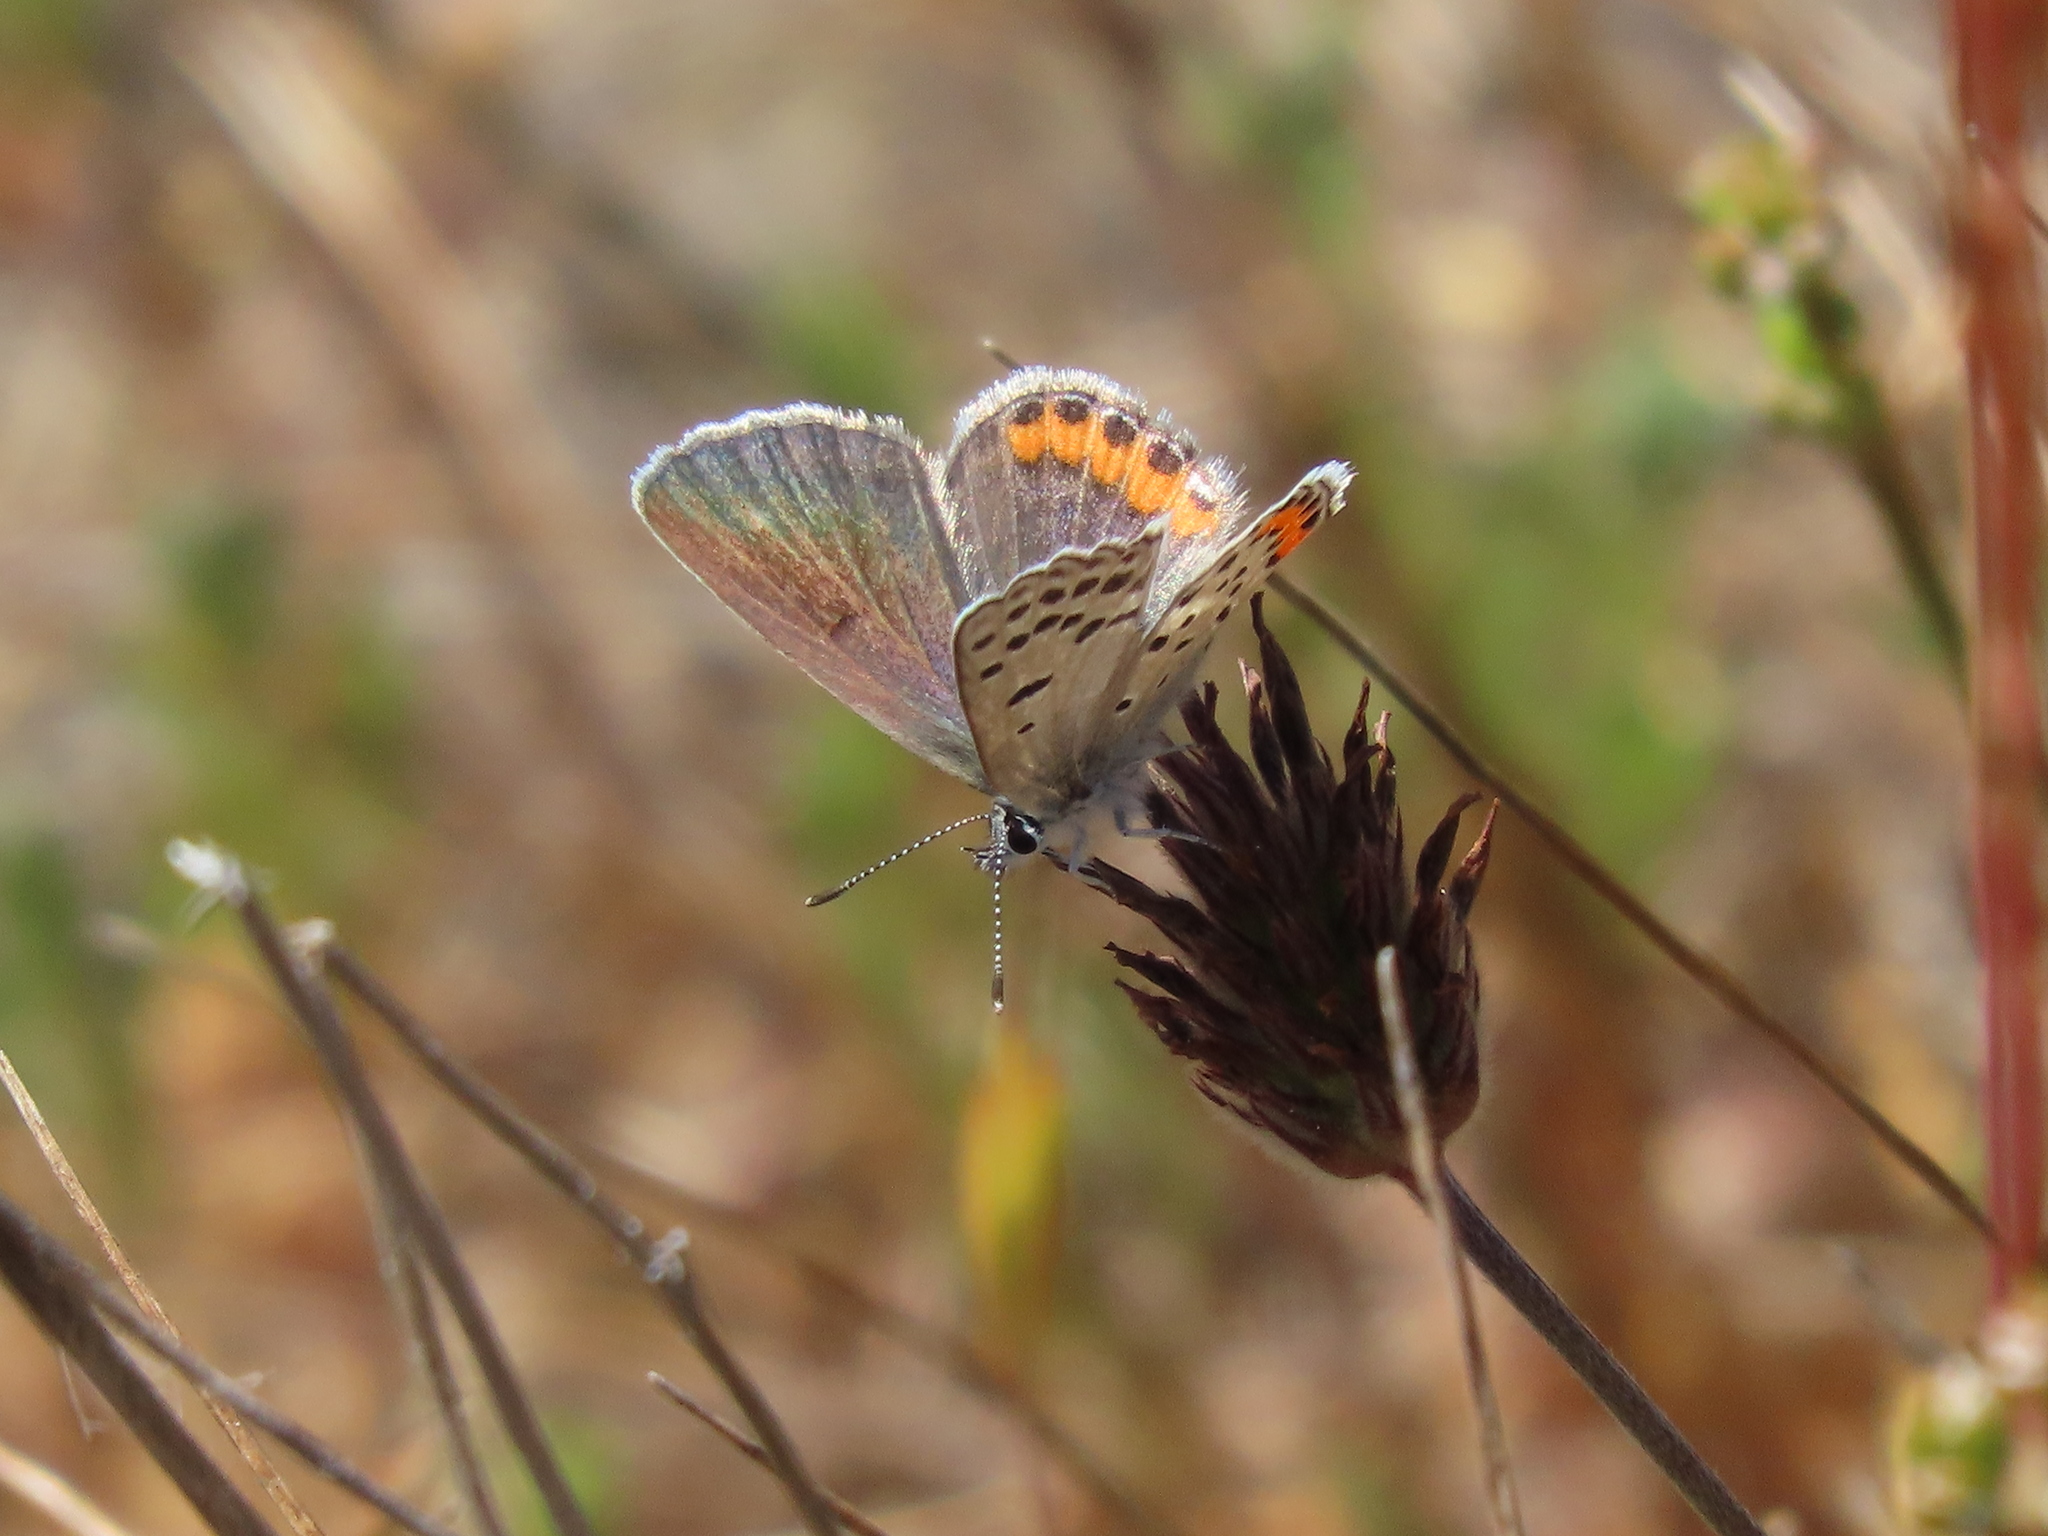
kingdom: Animalia
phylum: Arthropoda
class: Insecta
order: Lepidoptera
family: Lycaenidae
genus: Icaricia
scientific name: Icaricia acmon
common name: Acmon blue
